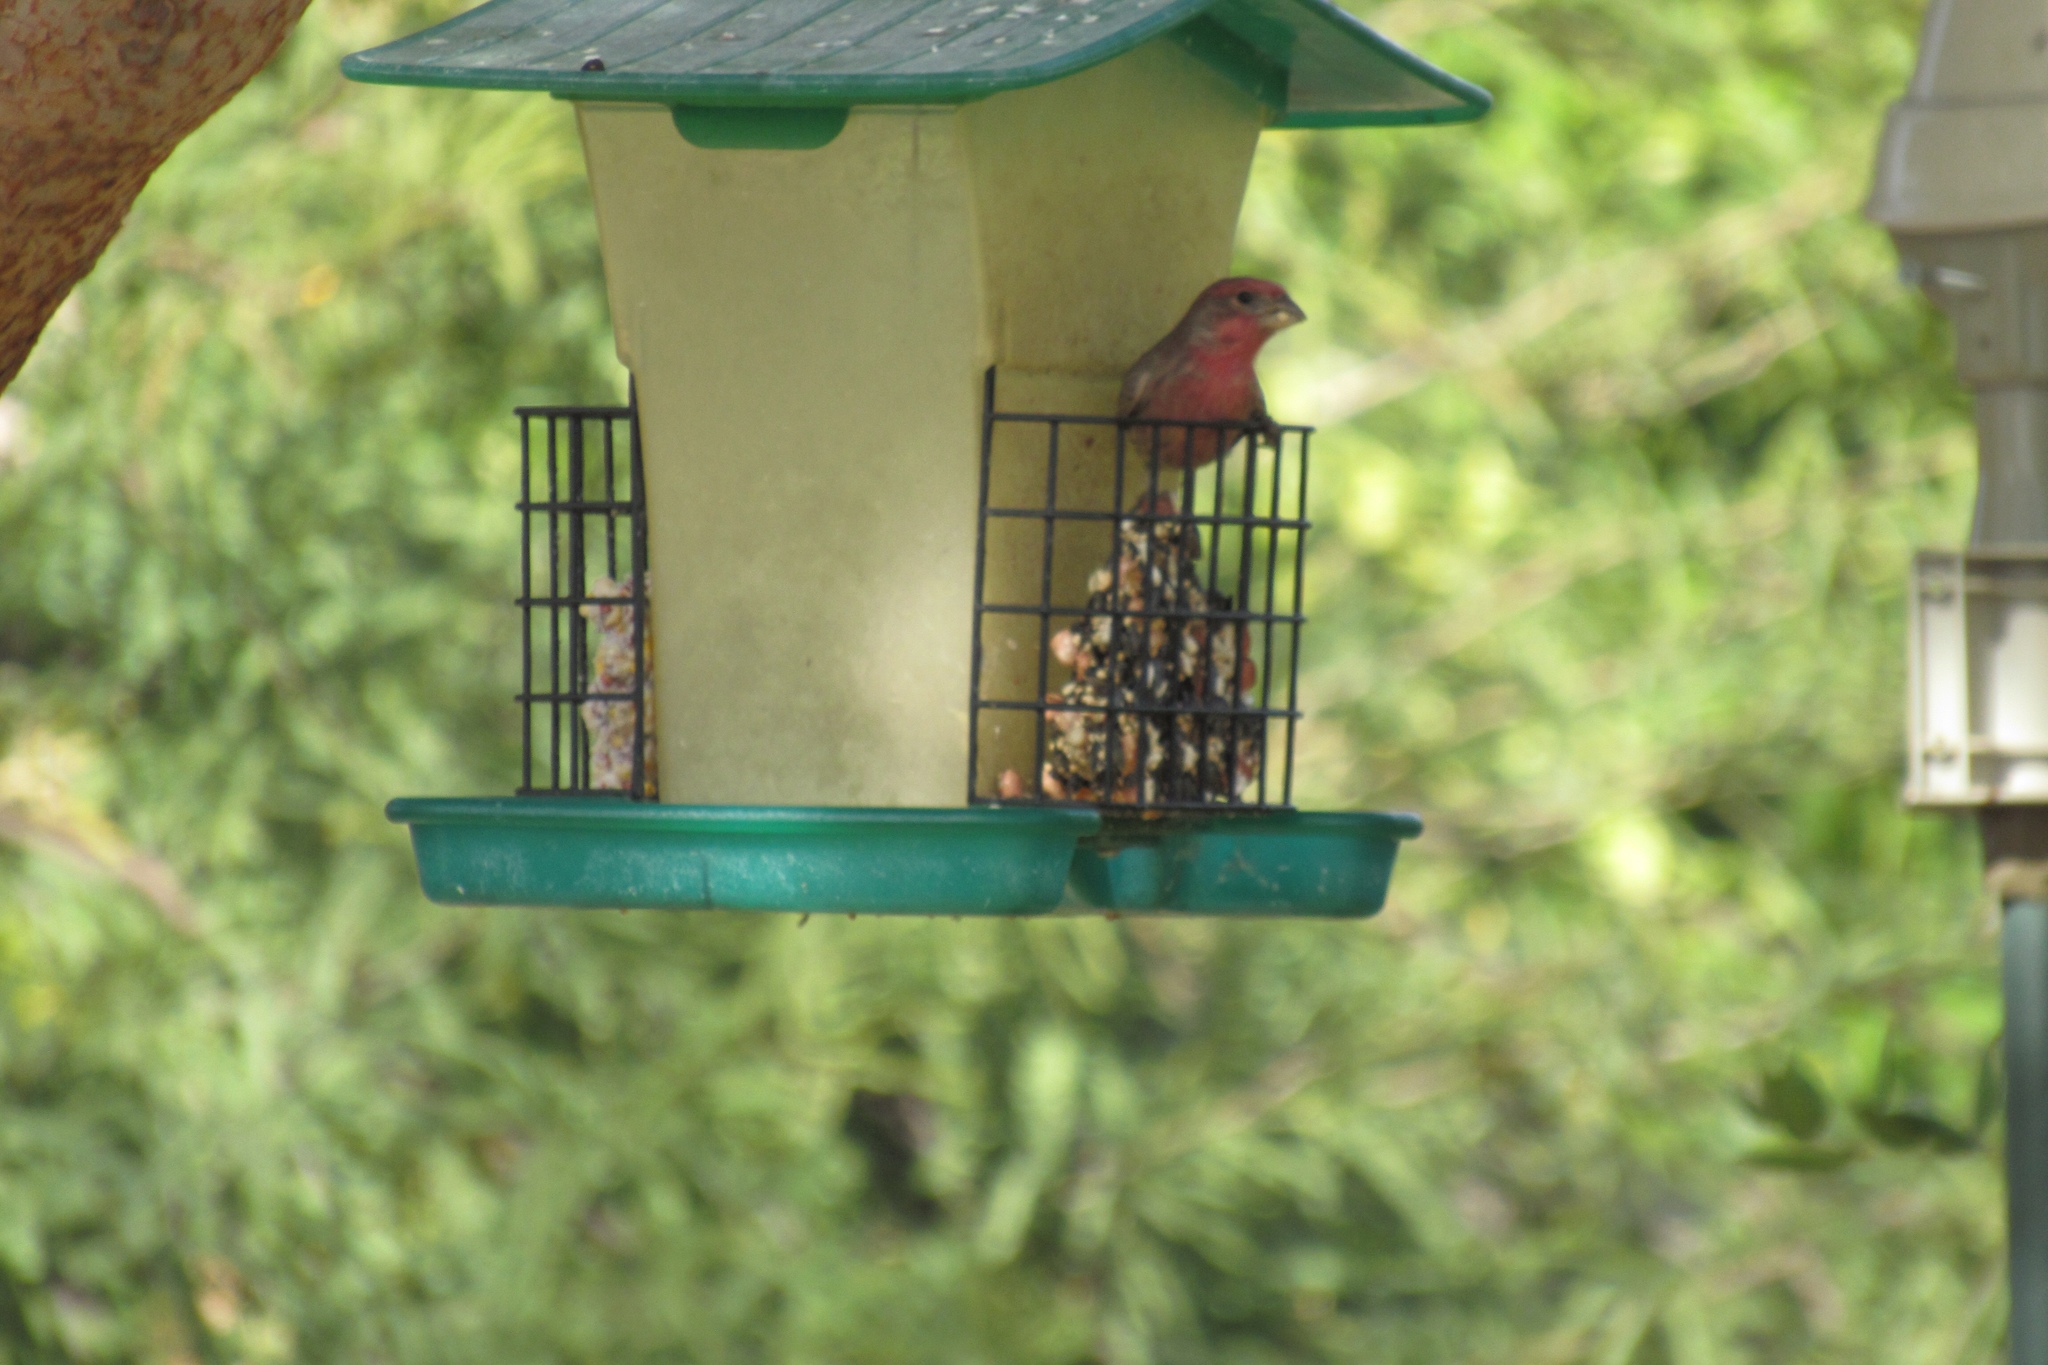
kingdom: Animalia
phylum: Chordata
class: Aves
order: Passeriformes
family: Fringillidae
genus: Haemorhous
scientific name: Haemorhous mexicanus
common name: House finch
